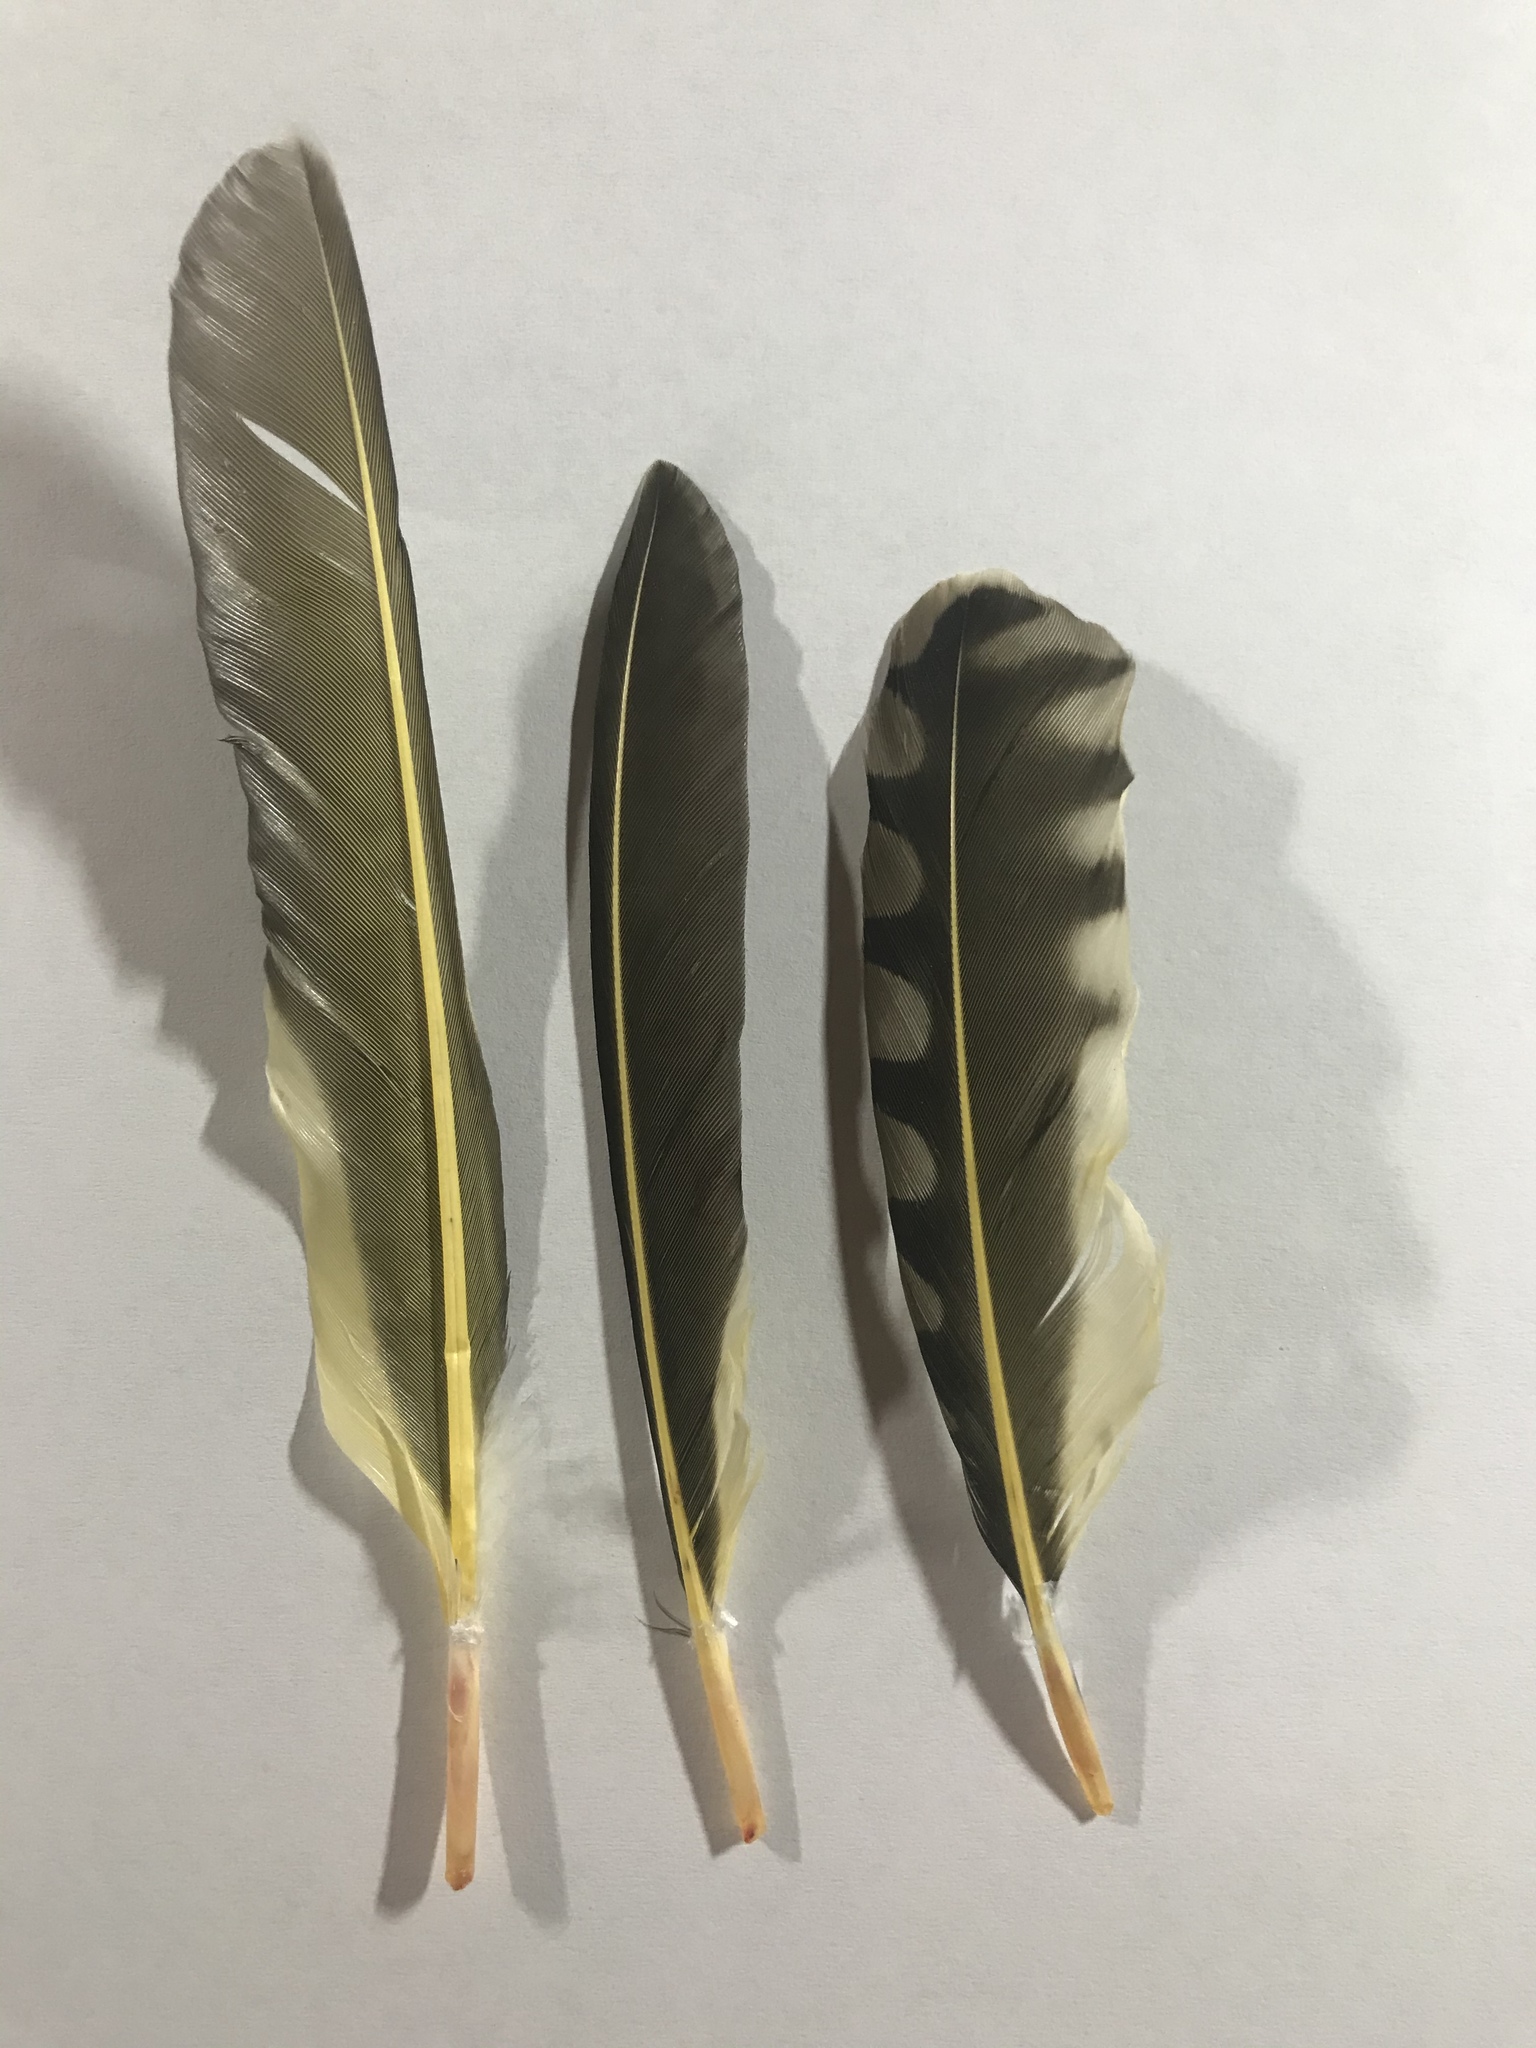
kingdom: Animalia
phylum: Chordata
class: Aves
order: Piciformes
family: Picidae
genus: Colaptes
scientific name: Colaptes auratus
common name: Northern flicker
